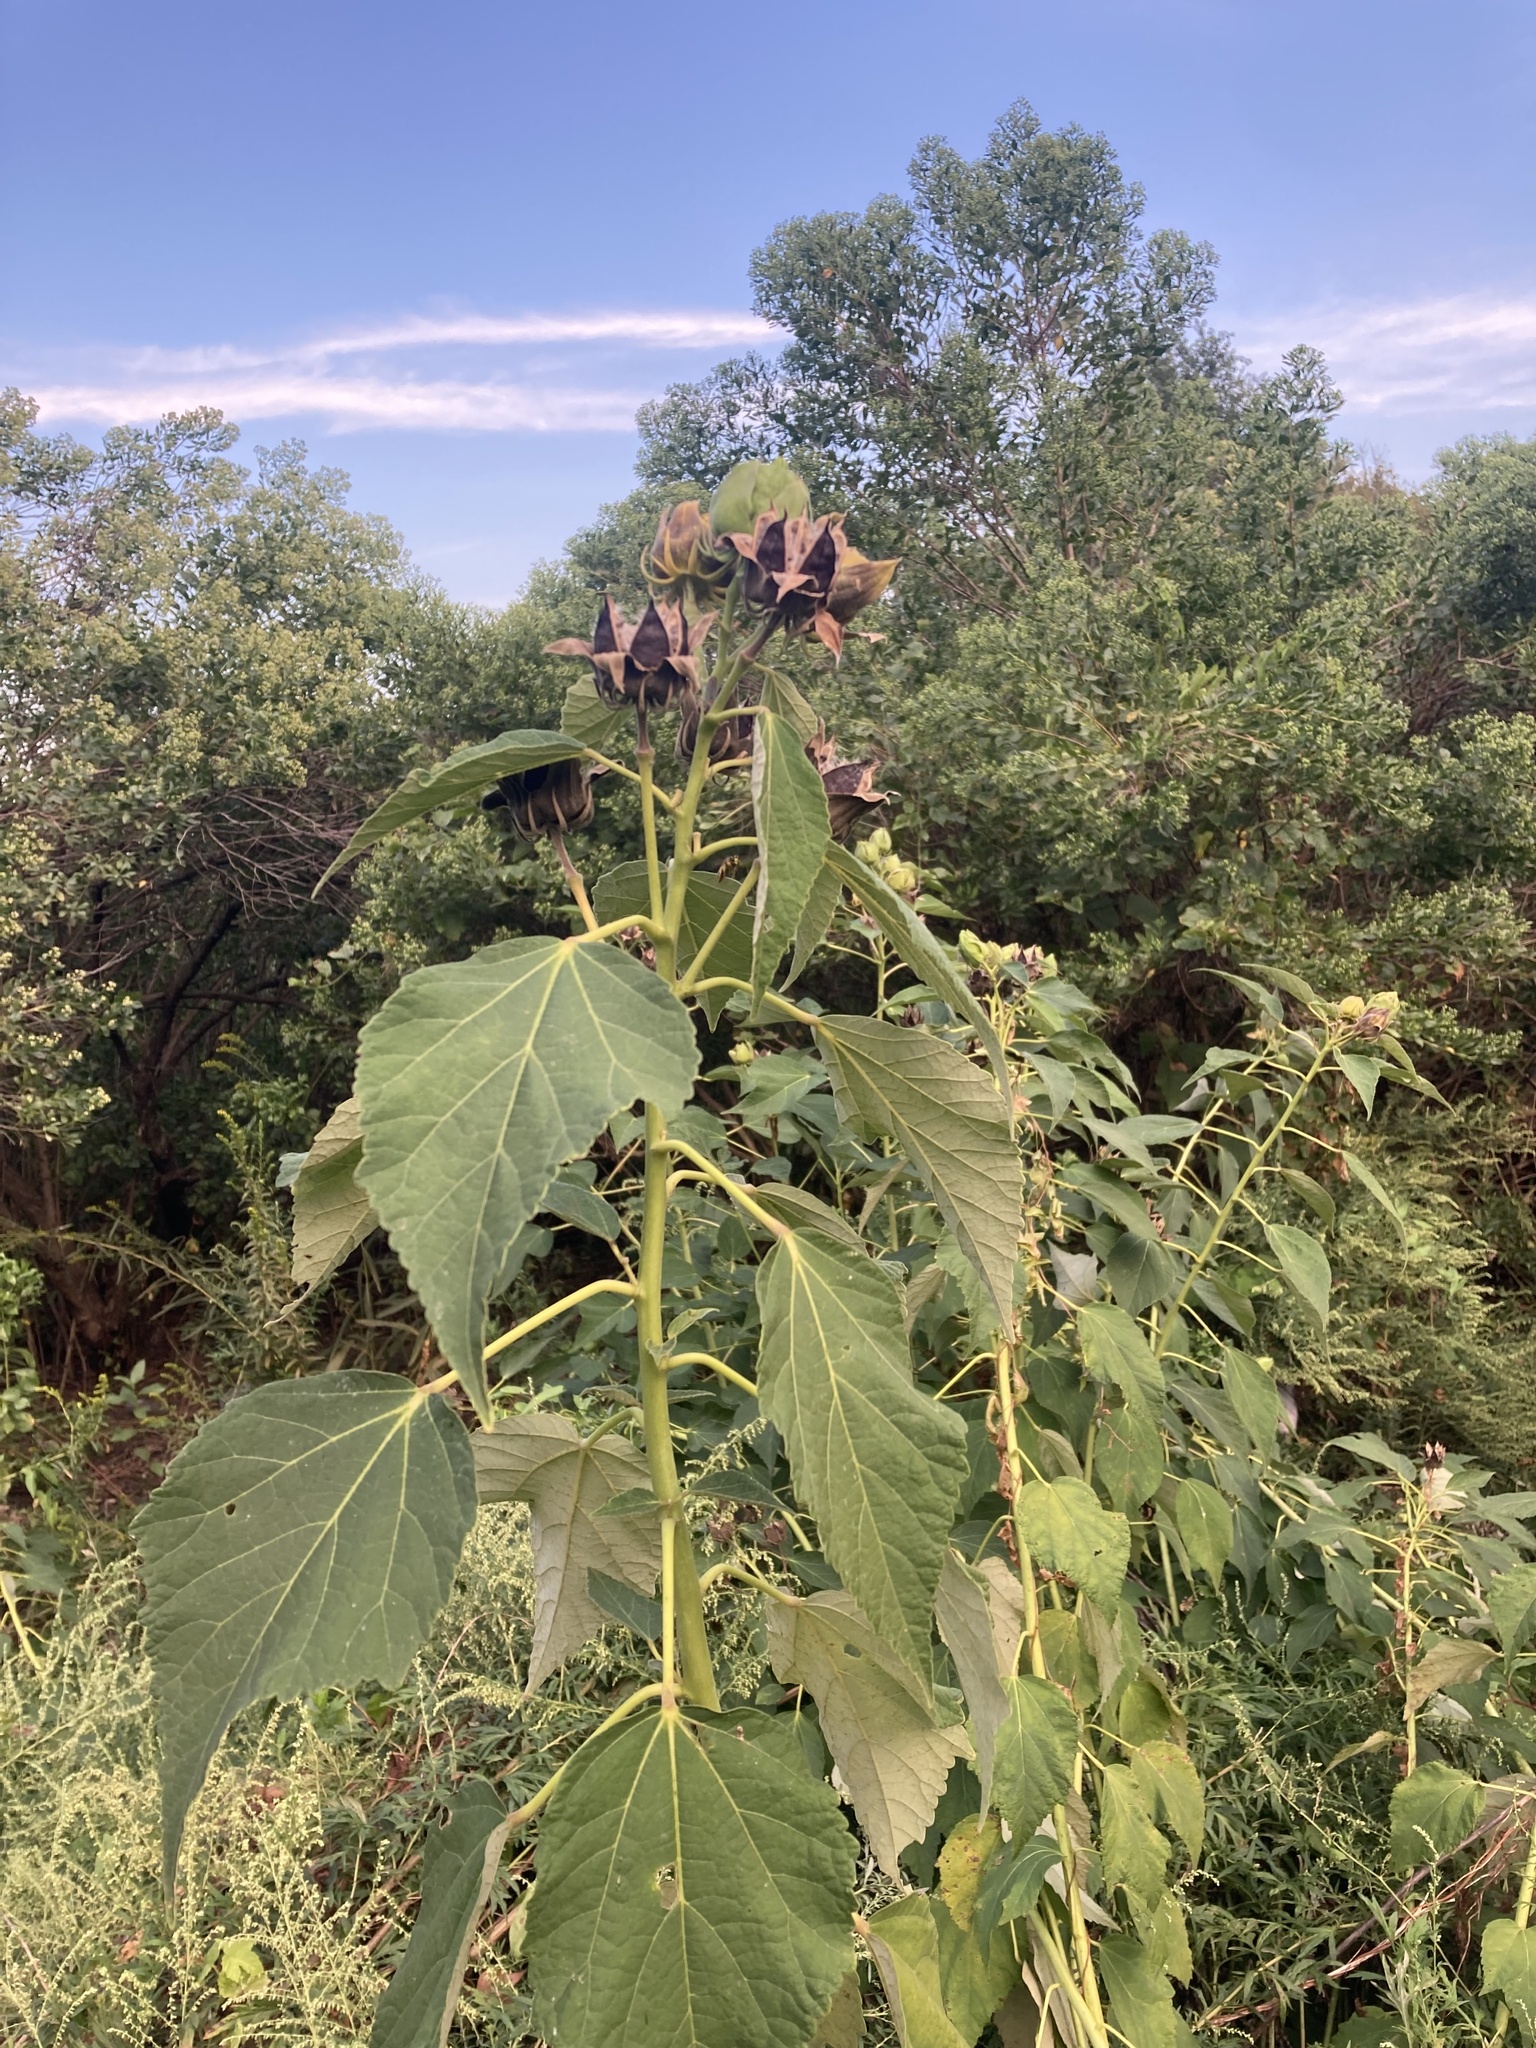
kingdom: Plantae
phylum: Tracheophyta
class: Magnoliopsida
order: Malvales
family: Malvaceae
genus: Hibiscus
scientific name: Hibiscus moscheutos
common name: Common rose-mallow
